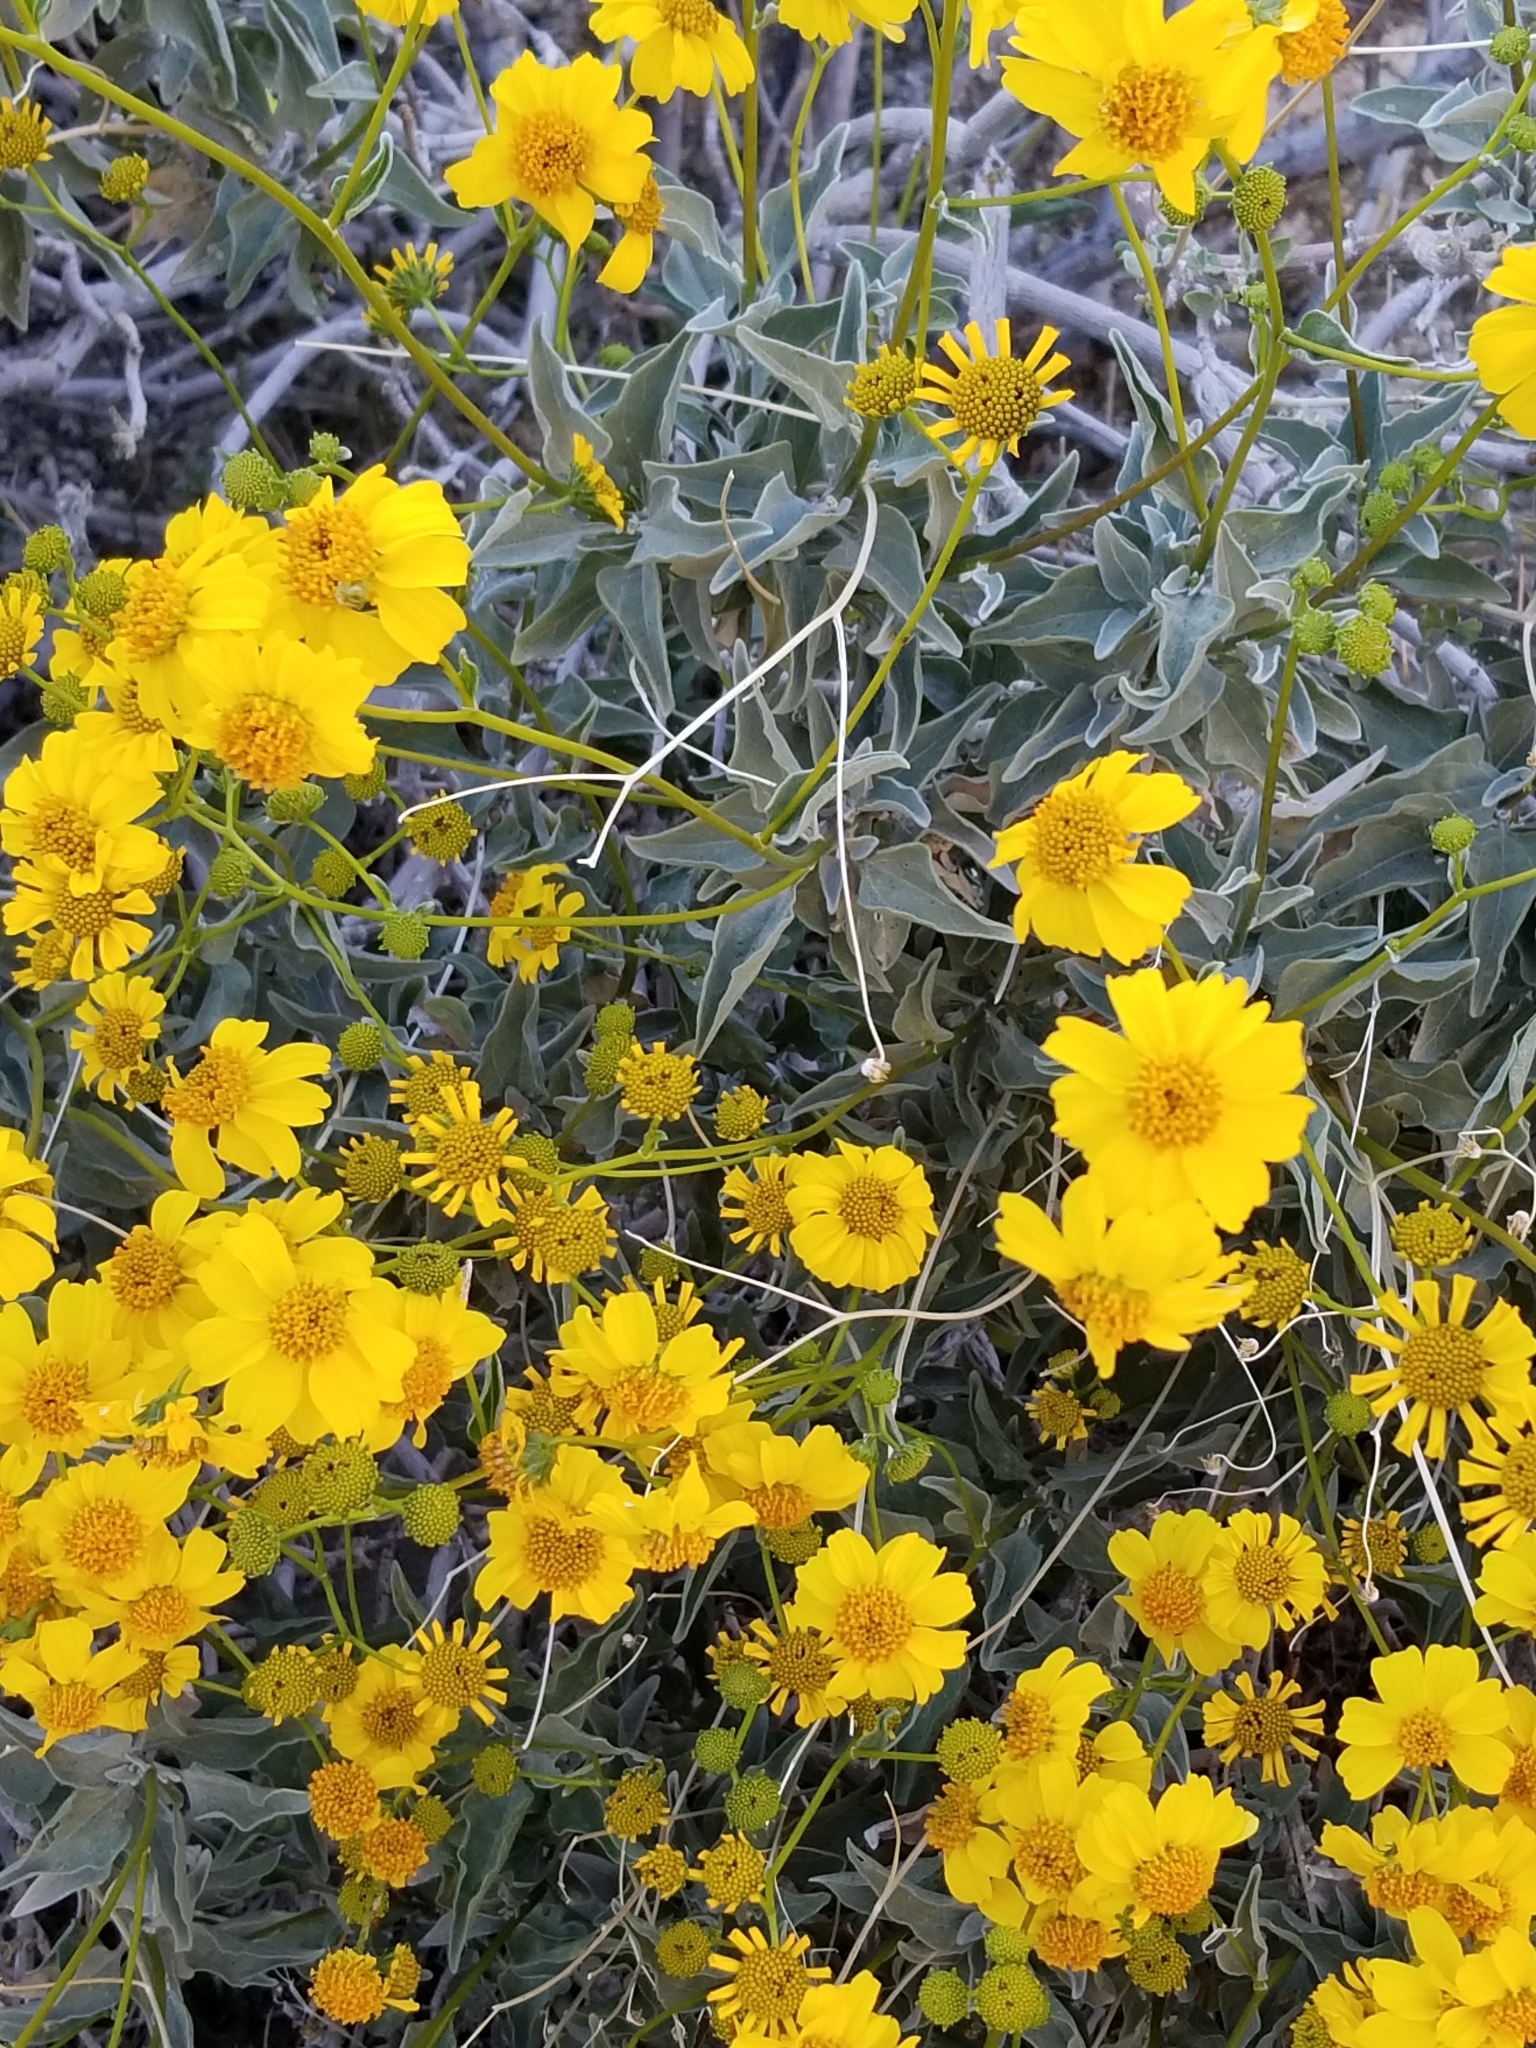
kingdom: Plantae
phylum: Tracheophyta
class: Magnoliopsida
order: Asterales
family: Asteraceae
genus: Encelia
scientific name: Encelia farinosa
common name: Brittlebush
